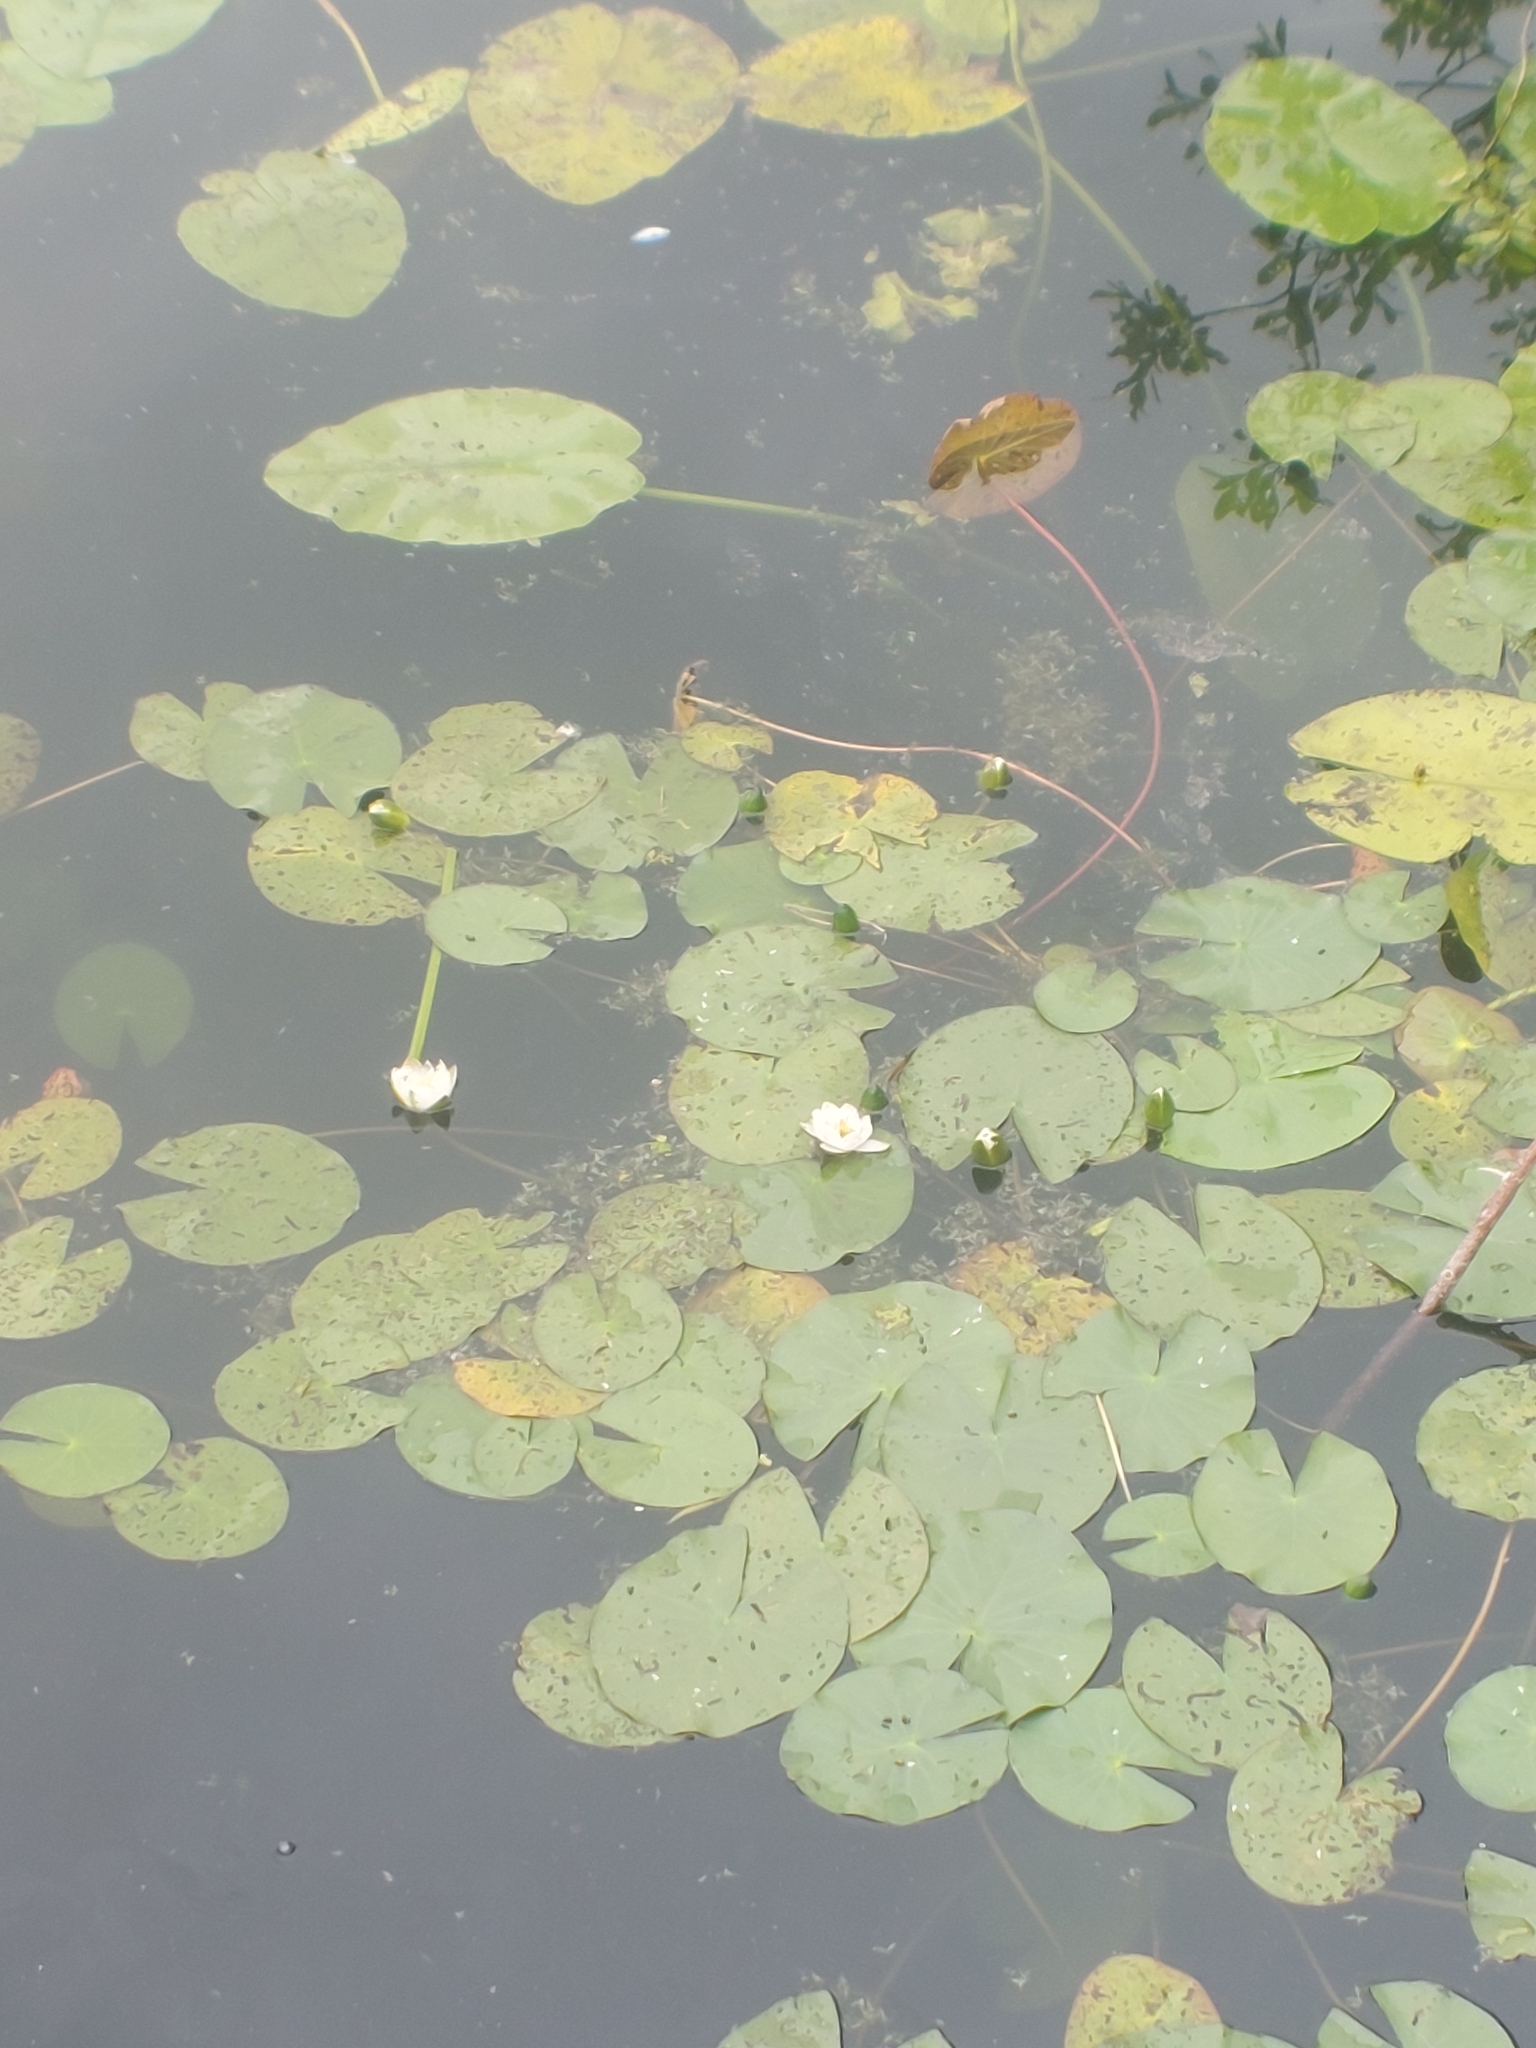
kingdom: Plantae
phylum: Tracheophyta
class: Magnoliopsida
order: Nymphaeales
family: Nymphaeaceae
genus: Nymphaea
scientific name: Nymphaea alba
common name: White water-lily
